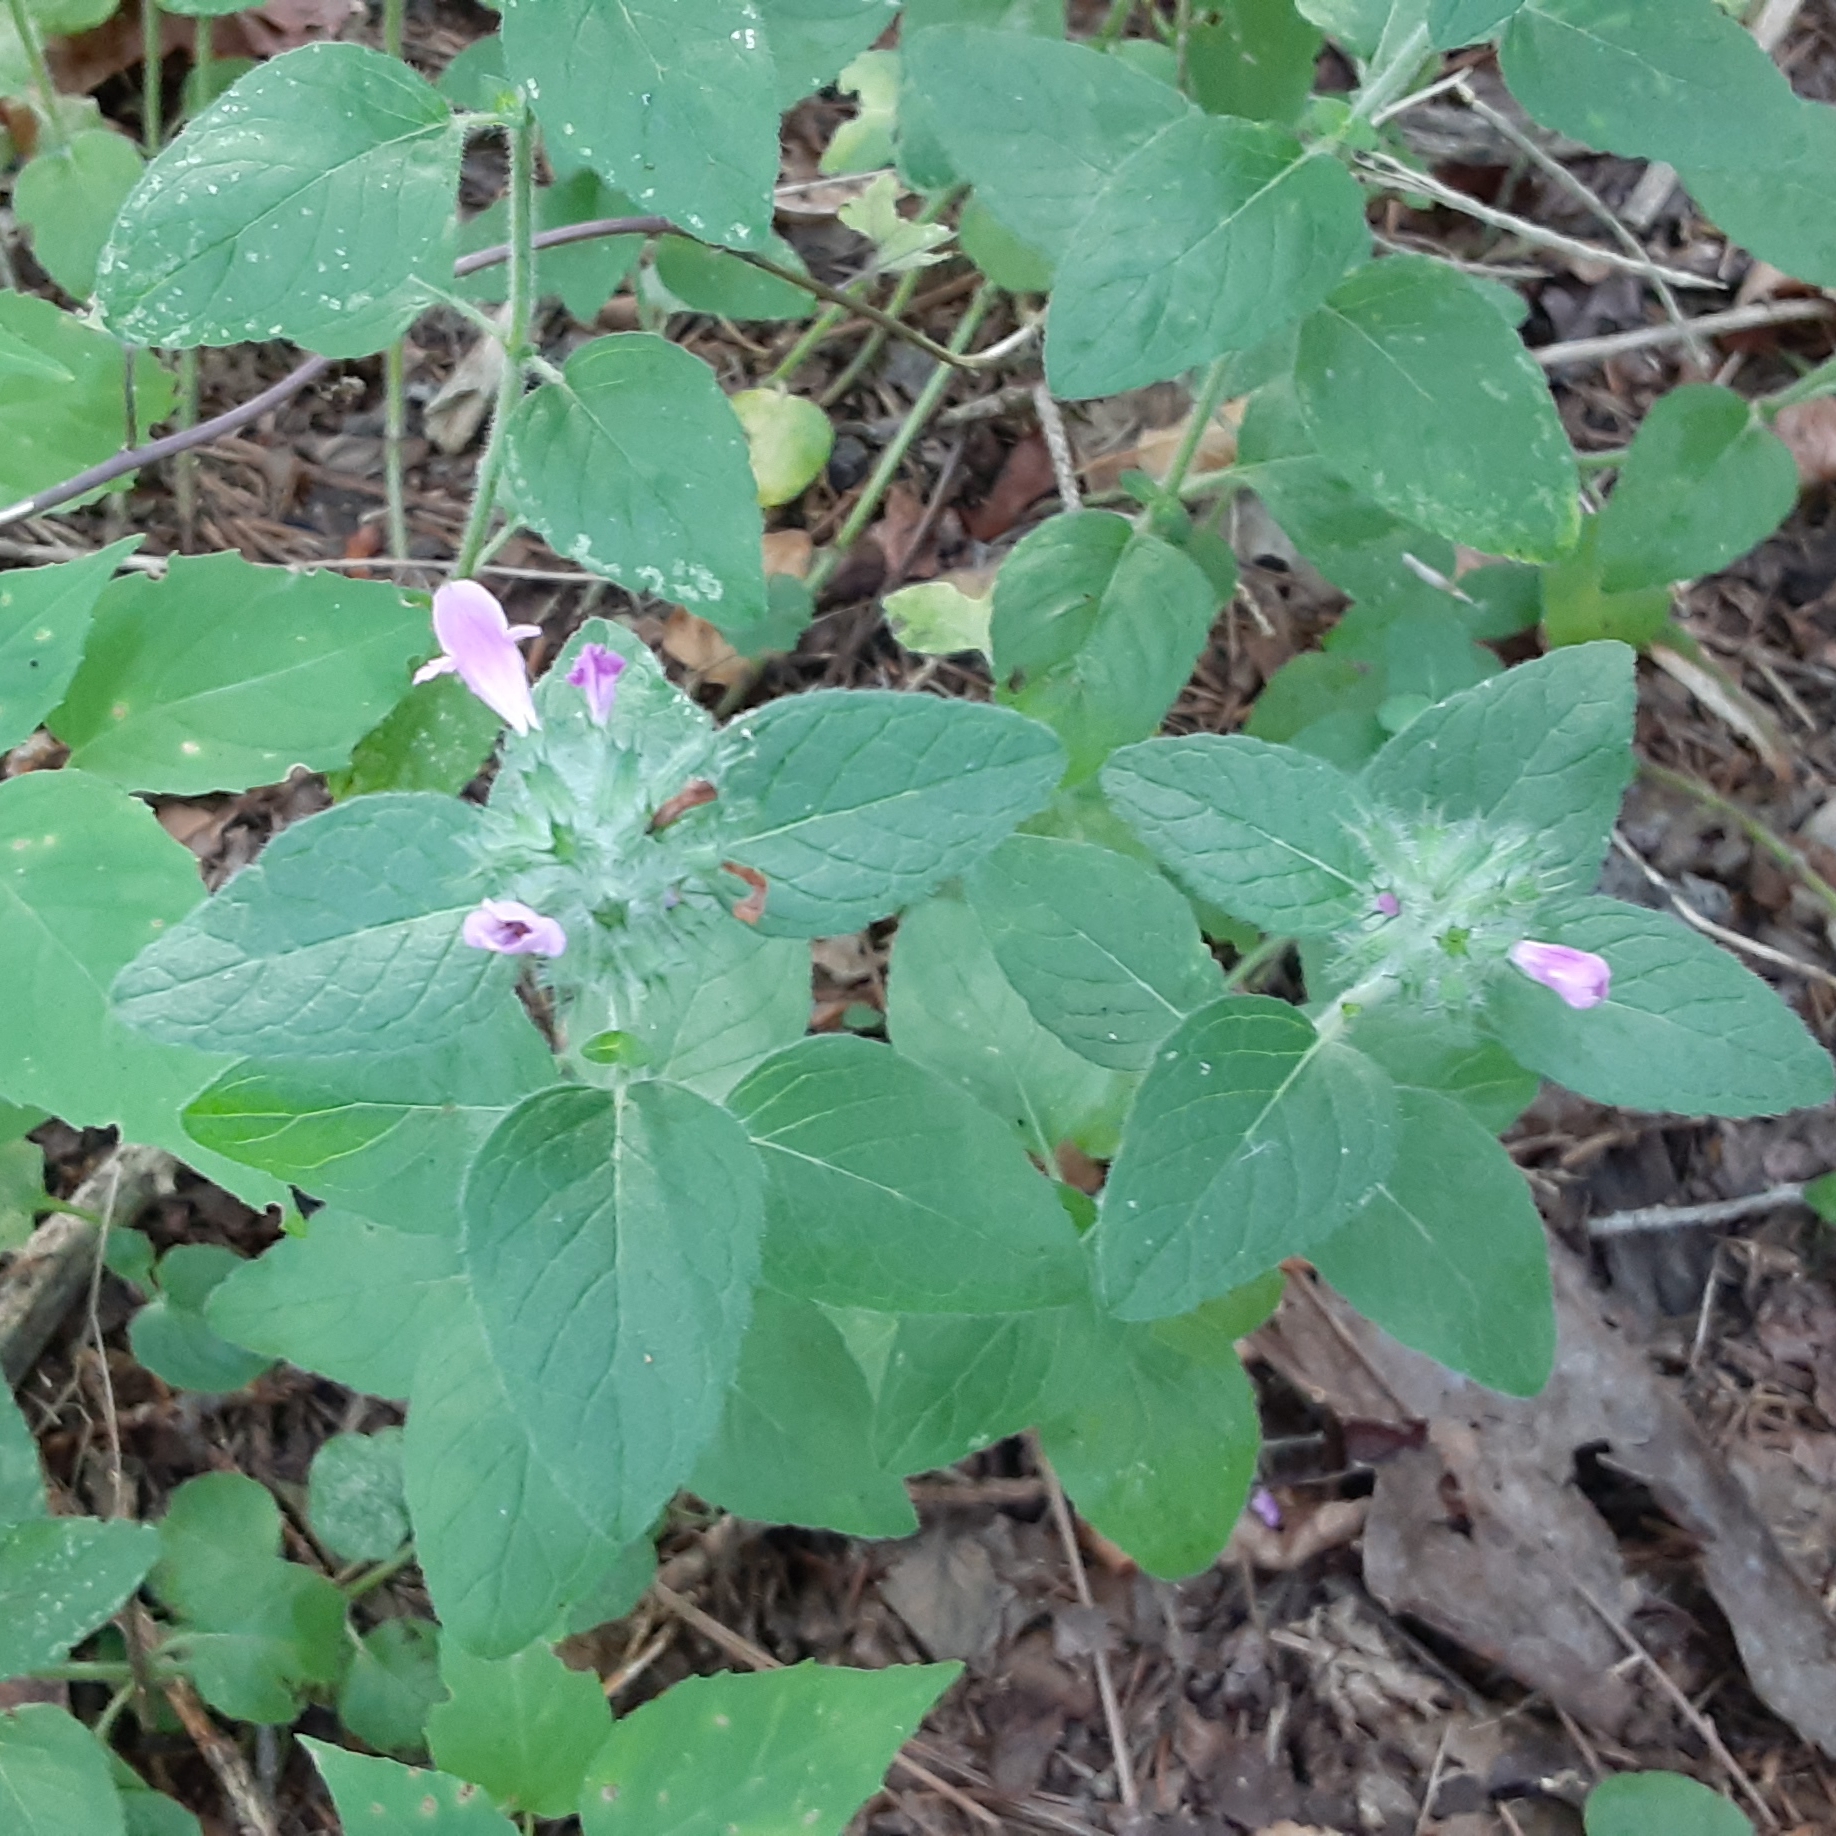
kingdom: Plantae
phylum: Tracheophyta
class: Magnoliopsida
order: Lamiales
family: Lamiaceae
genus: Clinopodium
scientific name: Clinopodium vulgare
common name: Wild basil
